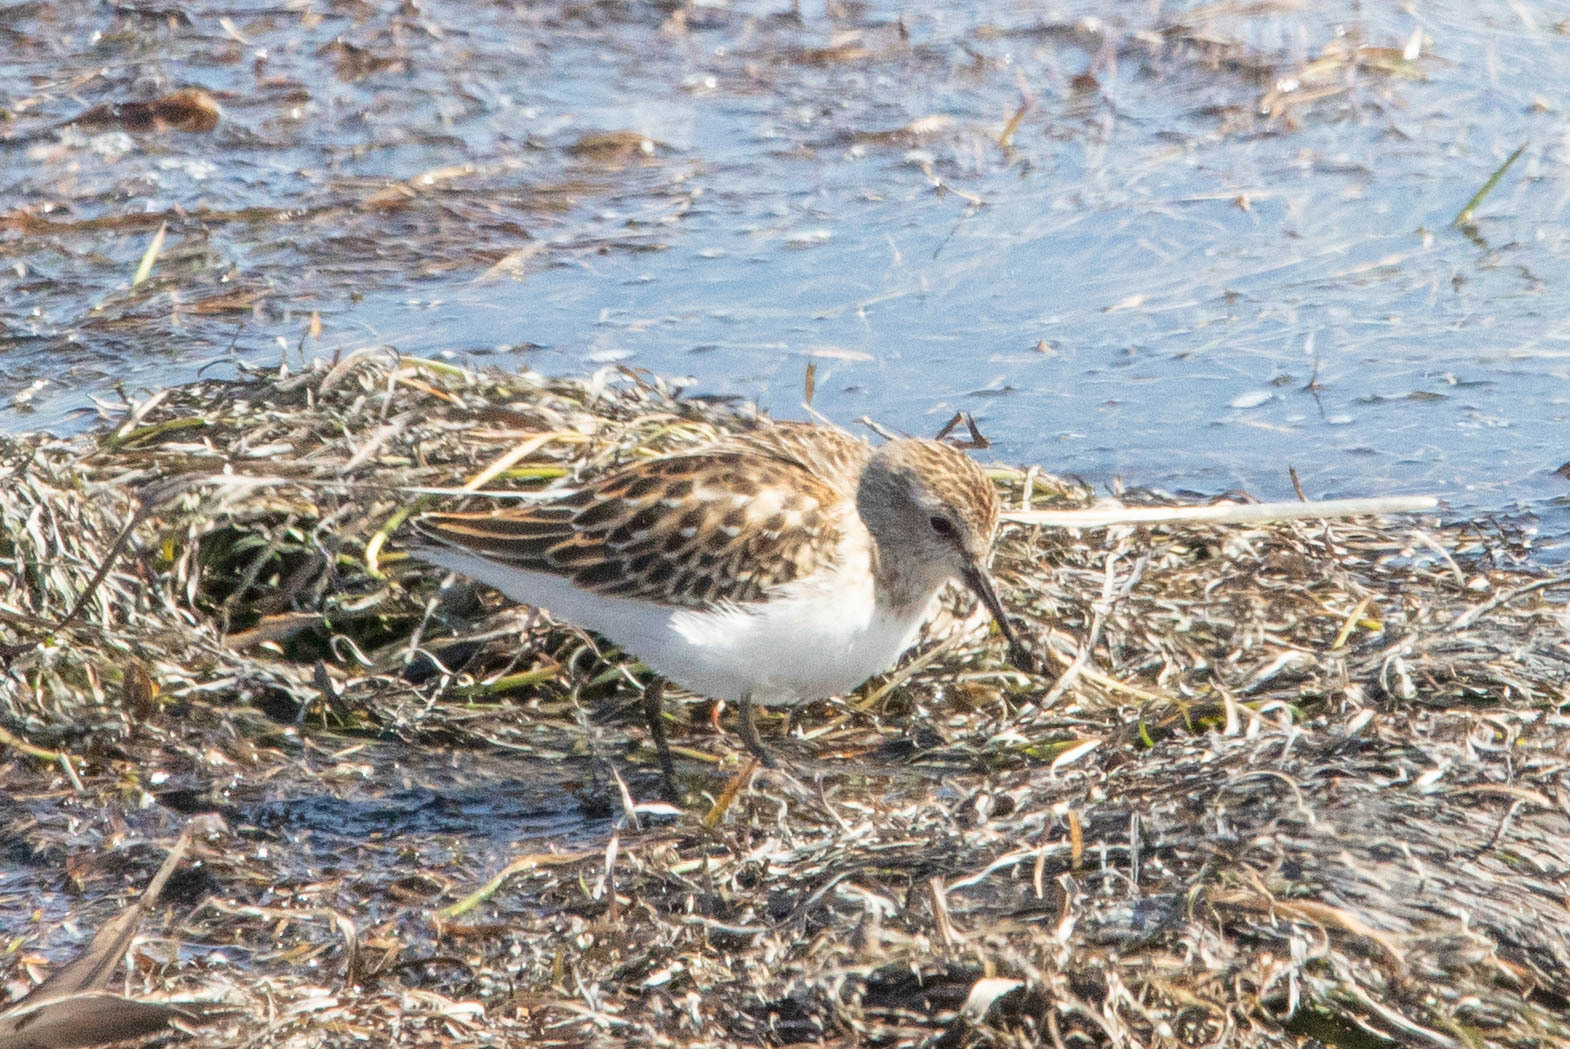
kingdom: Animalia
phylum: Chordata
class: Aves
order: Charadriiformes
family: Scolopacidae
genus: Calidris
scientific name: Calidris minutilla
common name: Least sandpiper
